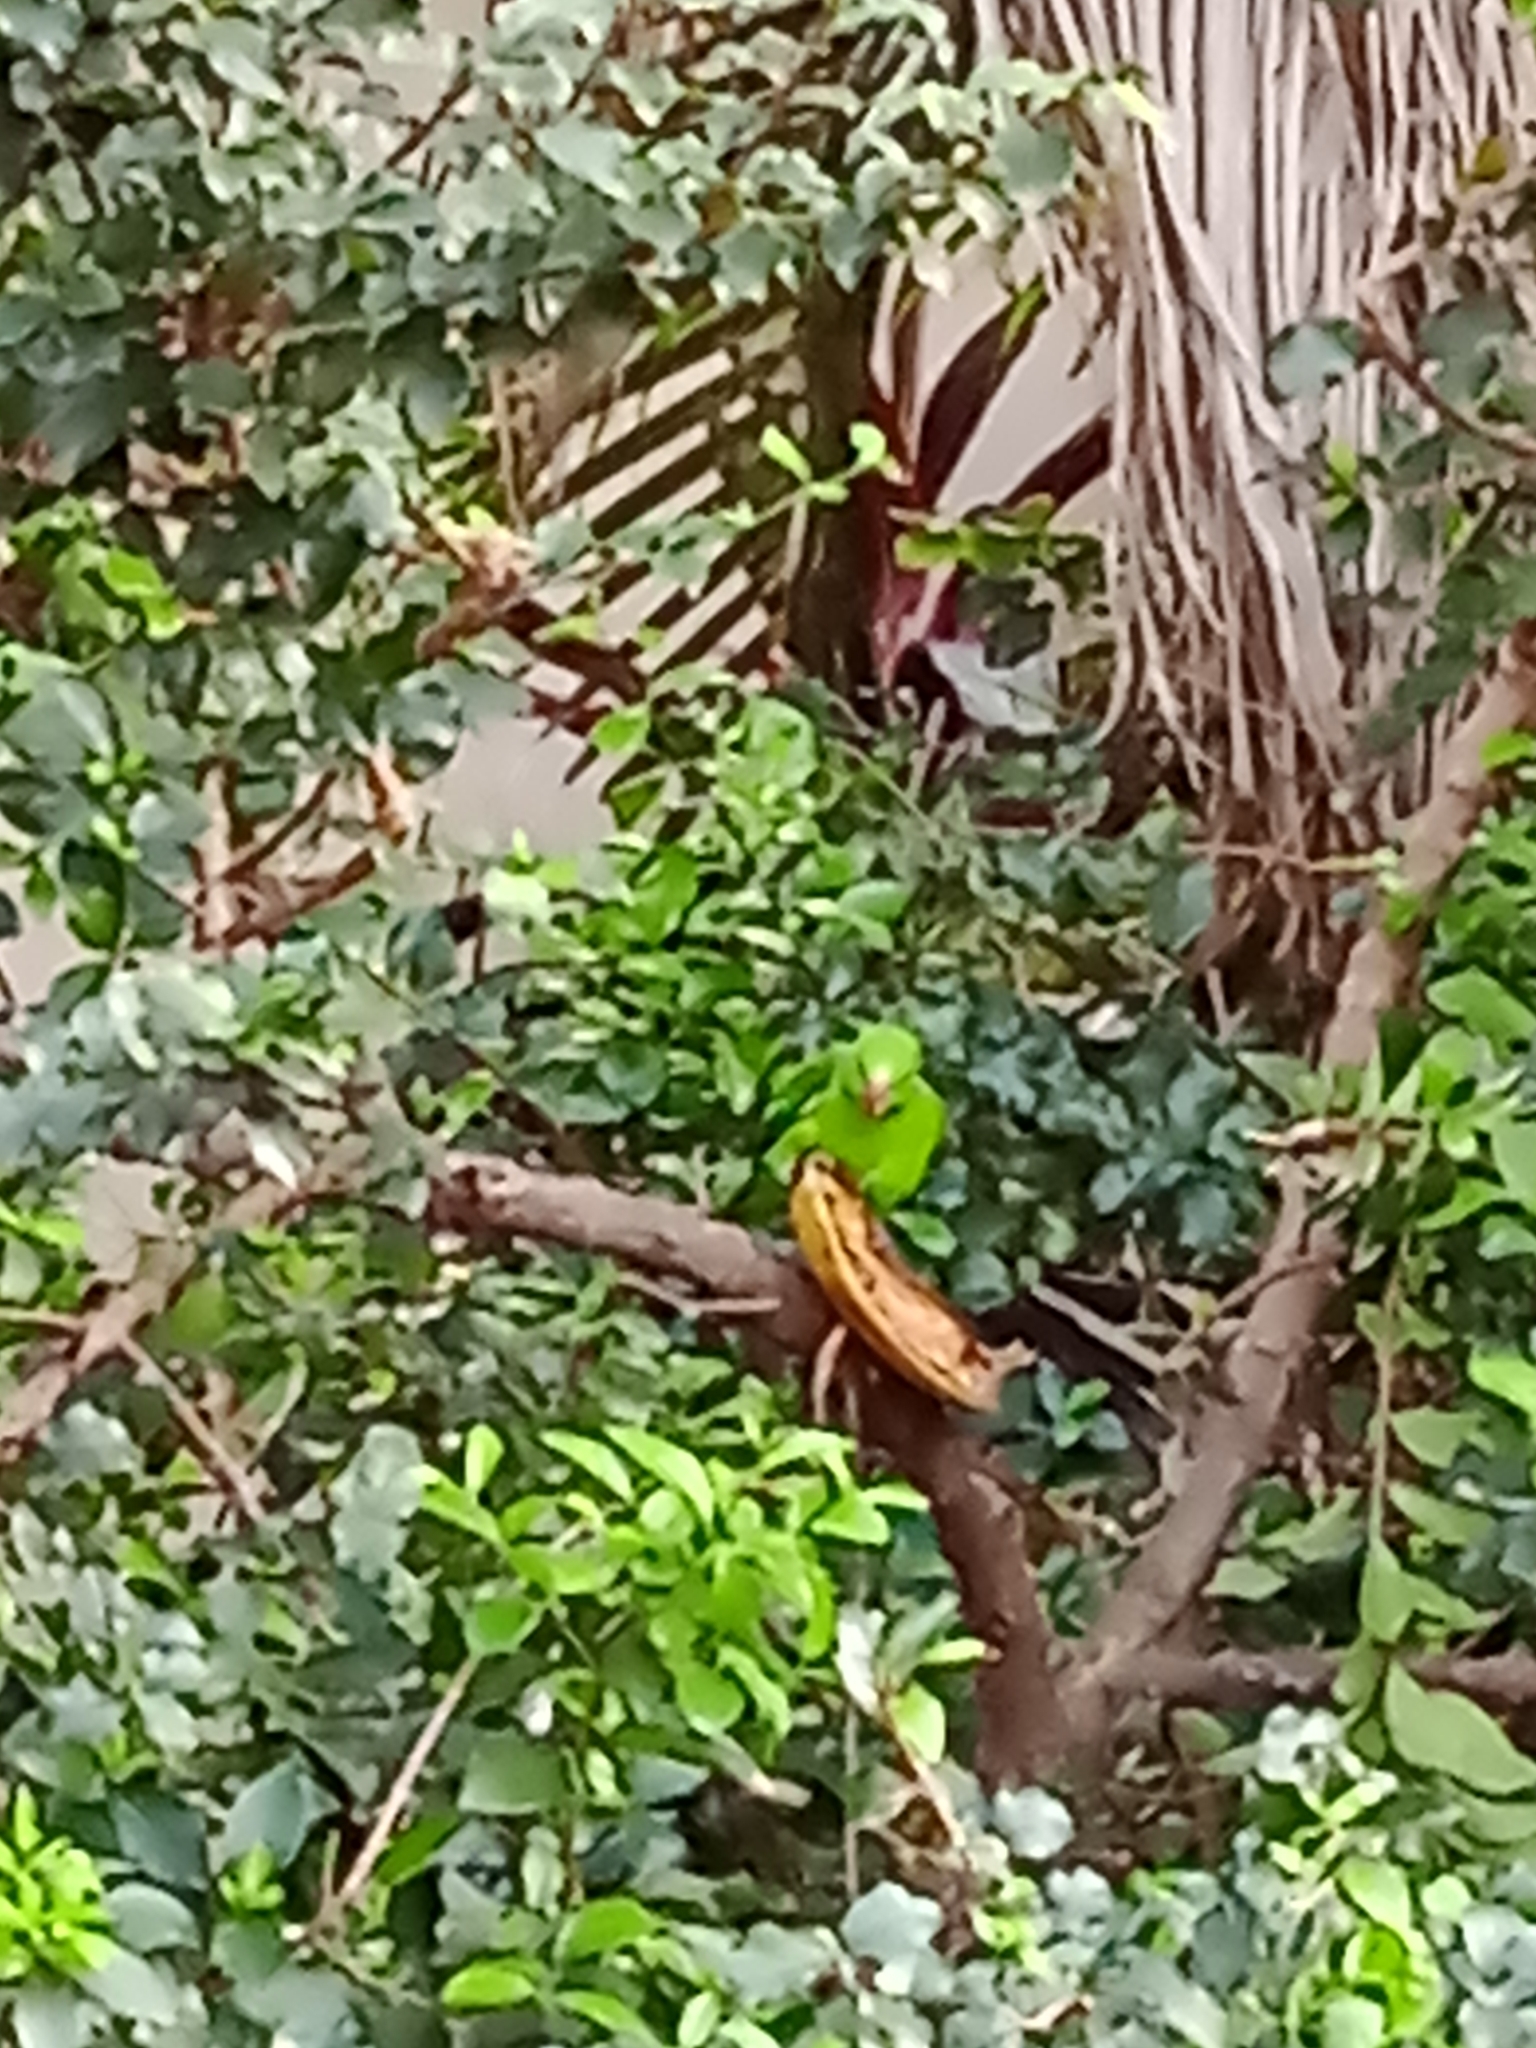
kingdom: Animalia
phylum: Chordata
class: Aves
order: Psittaciformes
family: Psittacidae
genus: Brotogeris
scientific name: Brotogeris tirica
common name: Plain parakeet
